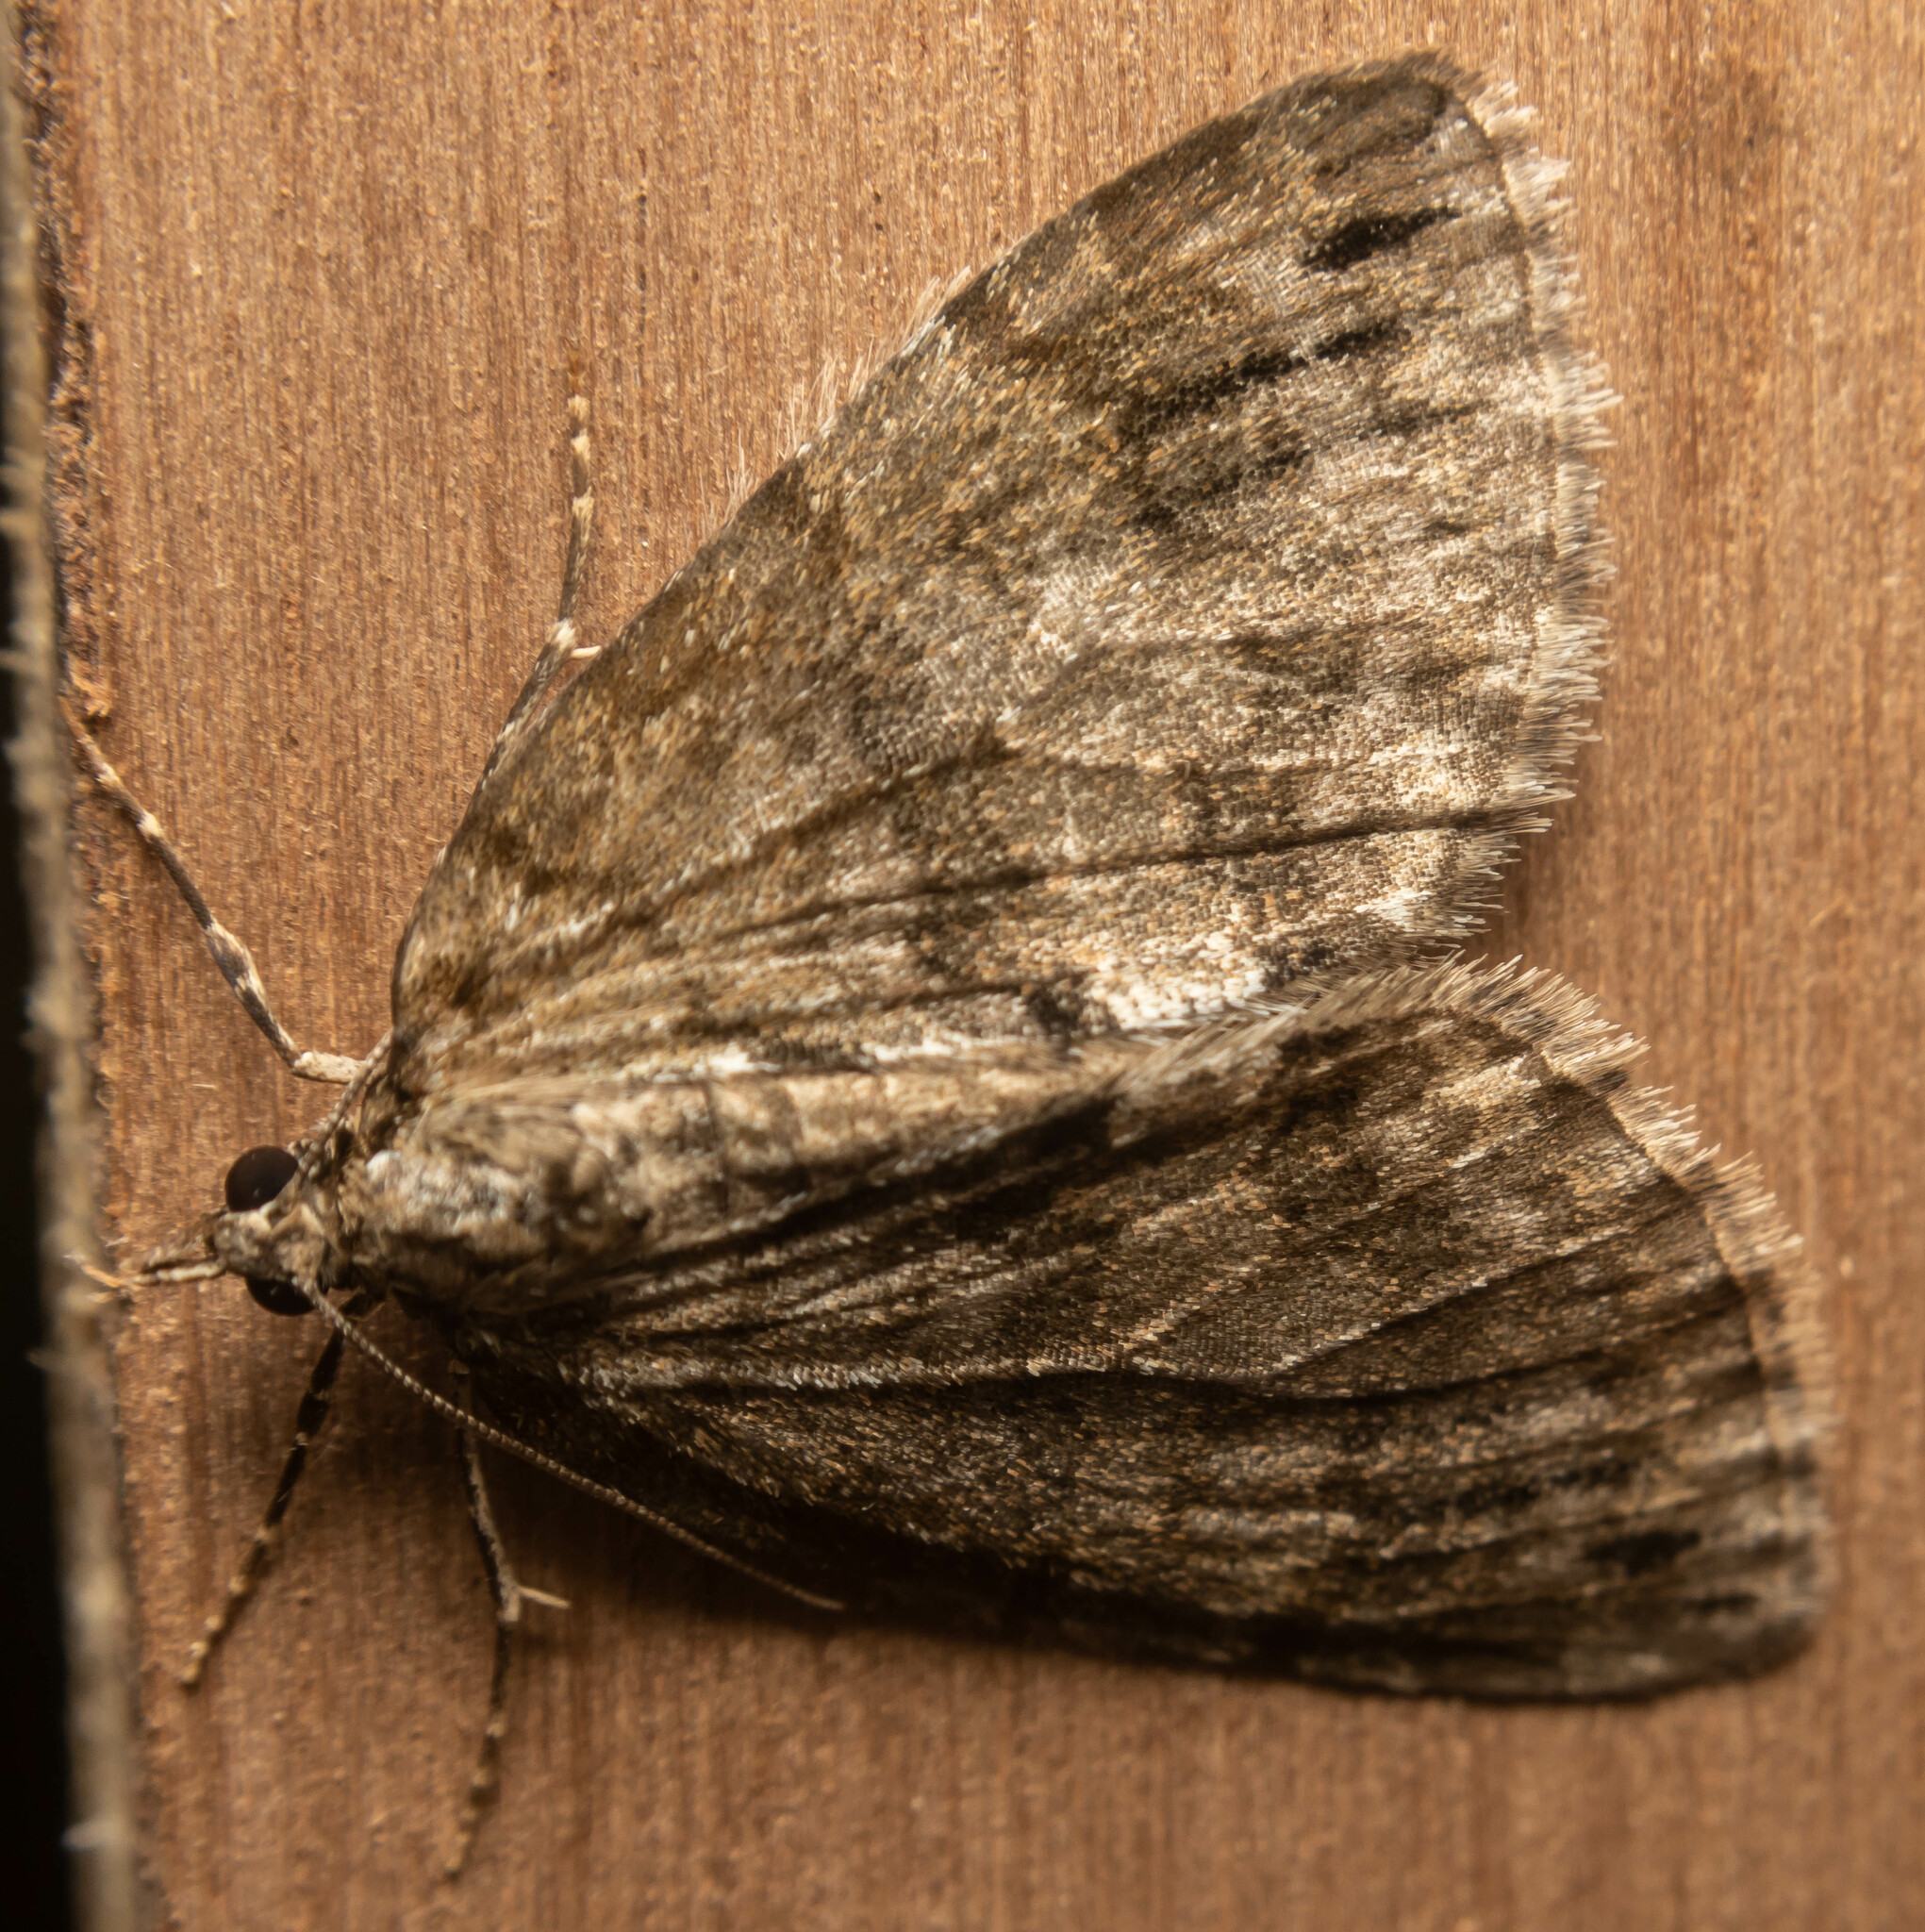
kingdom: Animalia
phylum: Arthropoda
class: Insecta
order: Lepidoptera
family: Geometridae
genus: Hydriomena
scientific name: Hydriomena impluviata
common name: May highflyer
